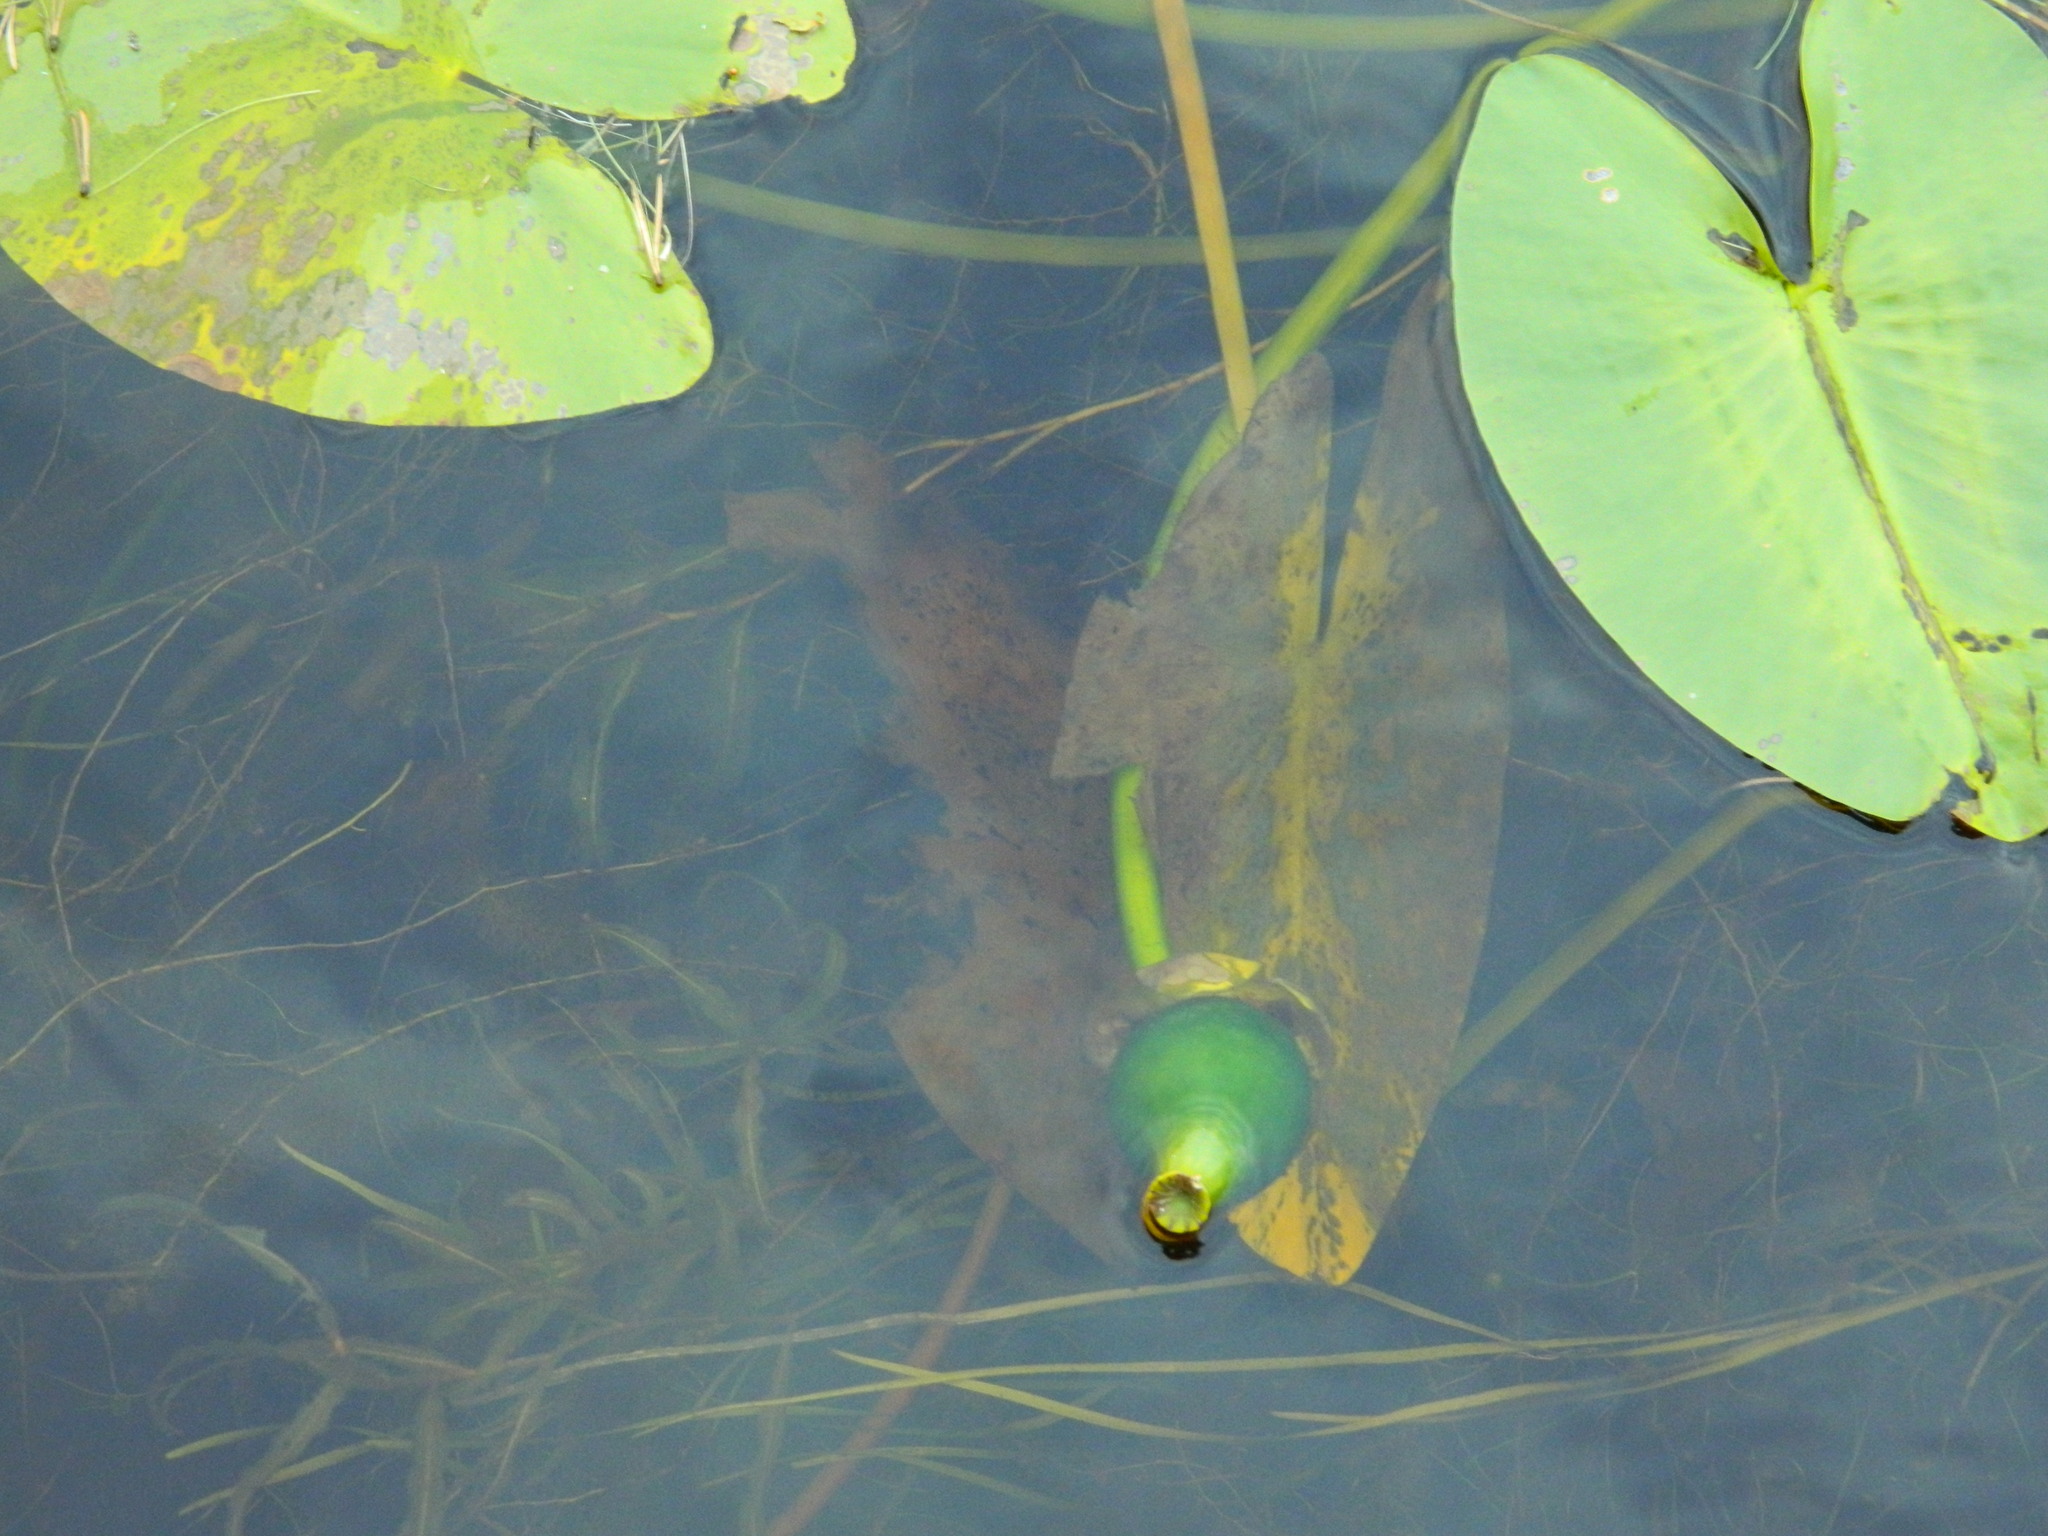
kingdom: Plantae
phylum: Tracheophyta
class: Magnoliopsida
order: Nymphaeales
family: Nymphaeaceae
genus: Nuphar
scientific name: Nuphar lutea
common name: Yellow water-lily
